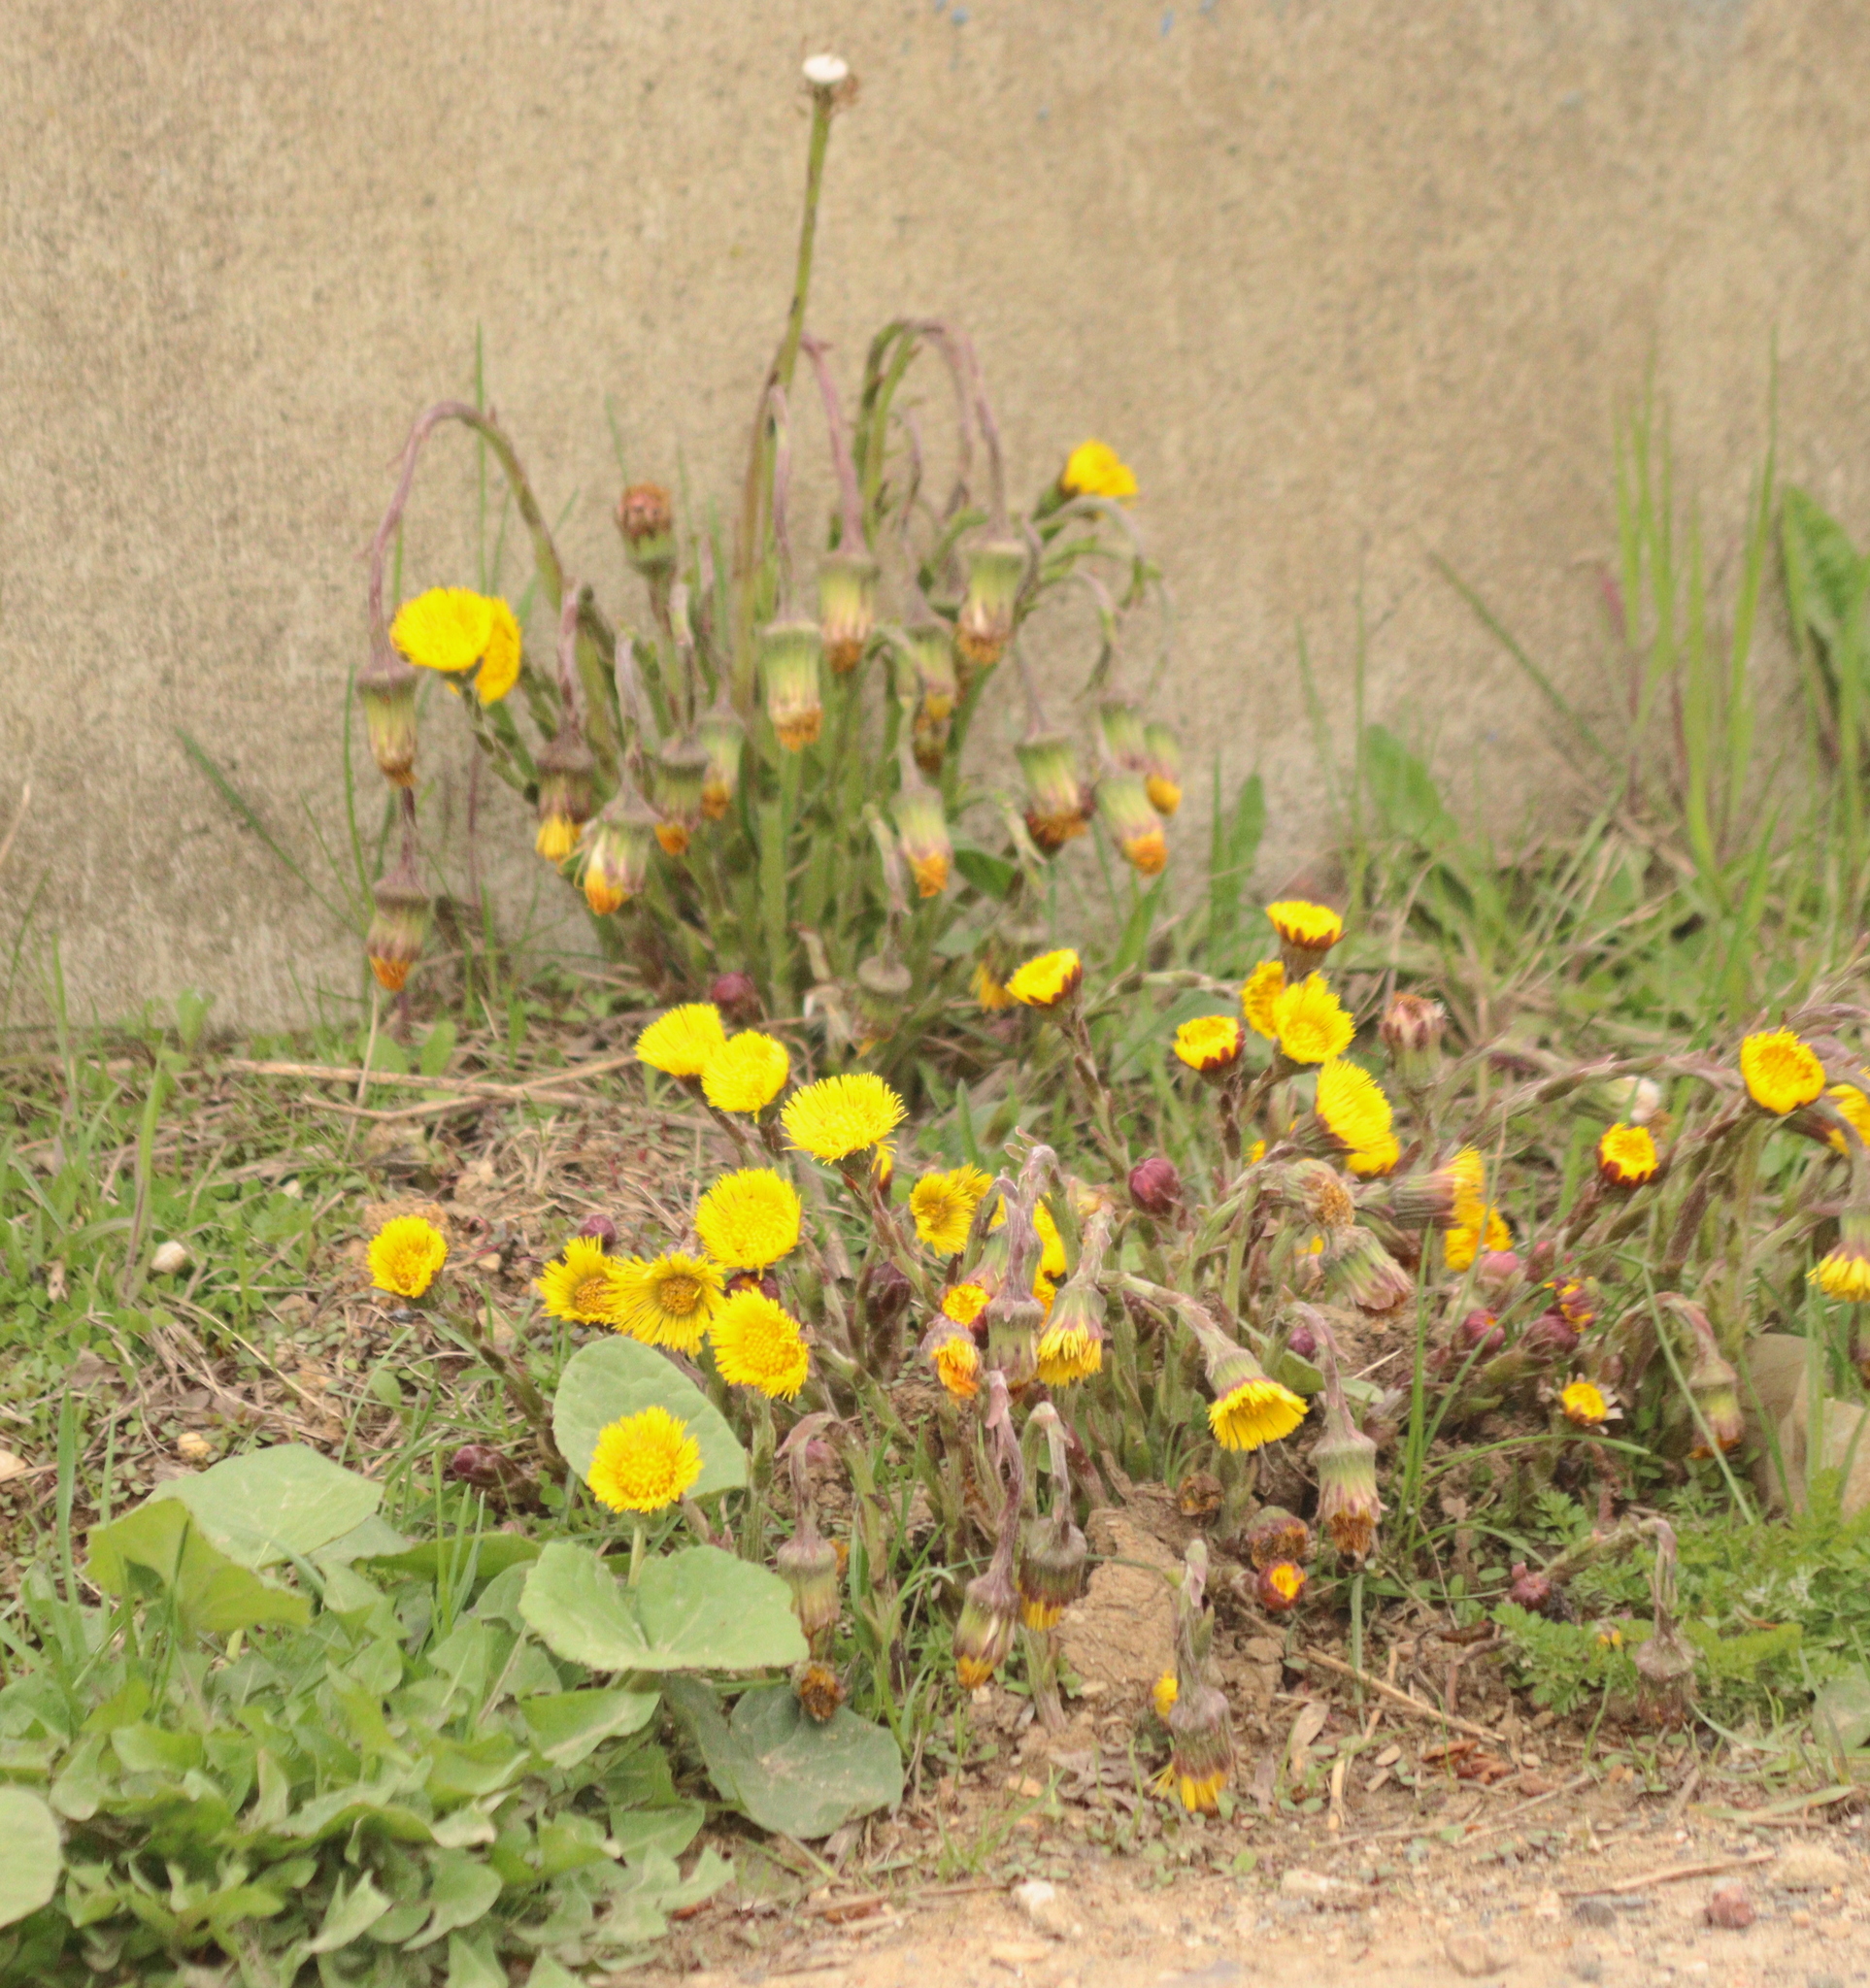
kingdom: Plantae
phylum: Tracheophyta
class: Magnoliopsida
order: Asterales
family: Asteraceae
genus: Tussilago
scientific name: Tussilago farfara
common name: Coltsfoot
